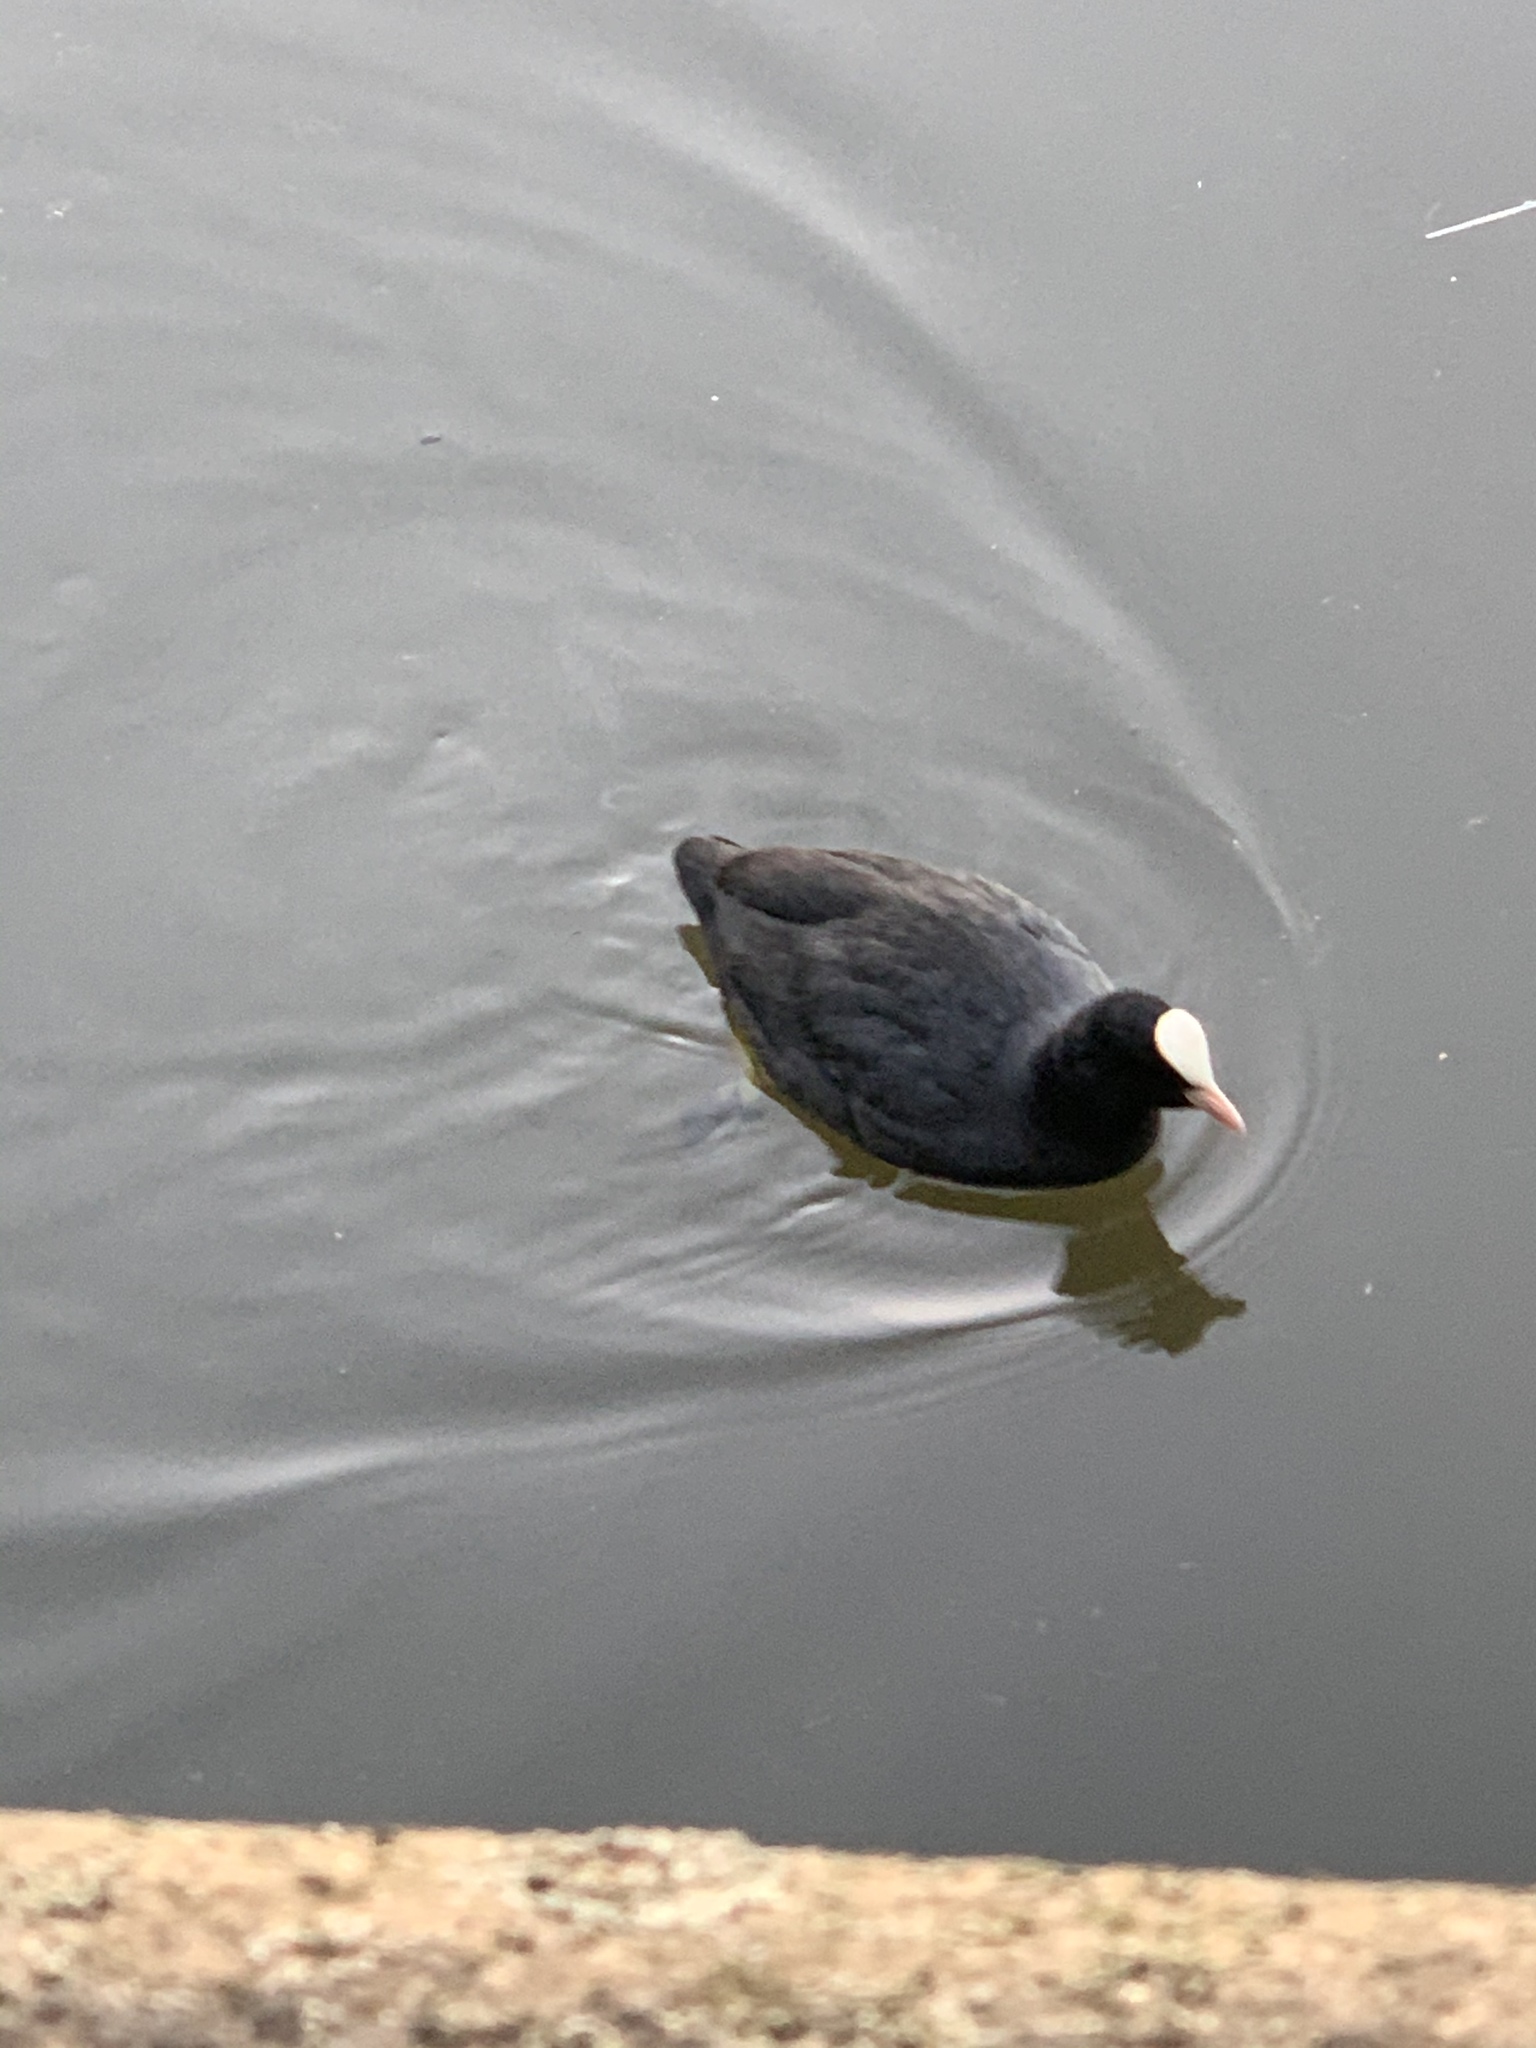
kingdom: Animalia
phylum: Chordata
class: Aves
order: Gruiformes
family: Rallidae
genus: Fulica
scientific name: Fulica atra
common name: Eurasian coot
